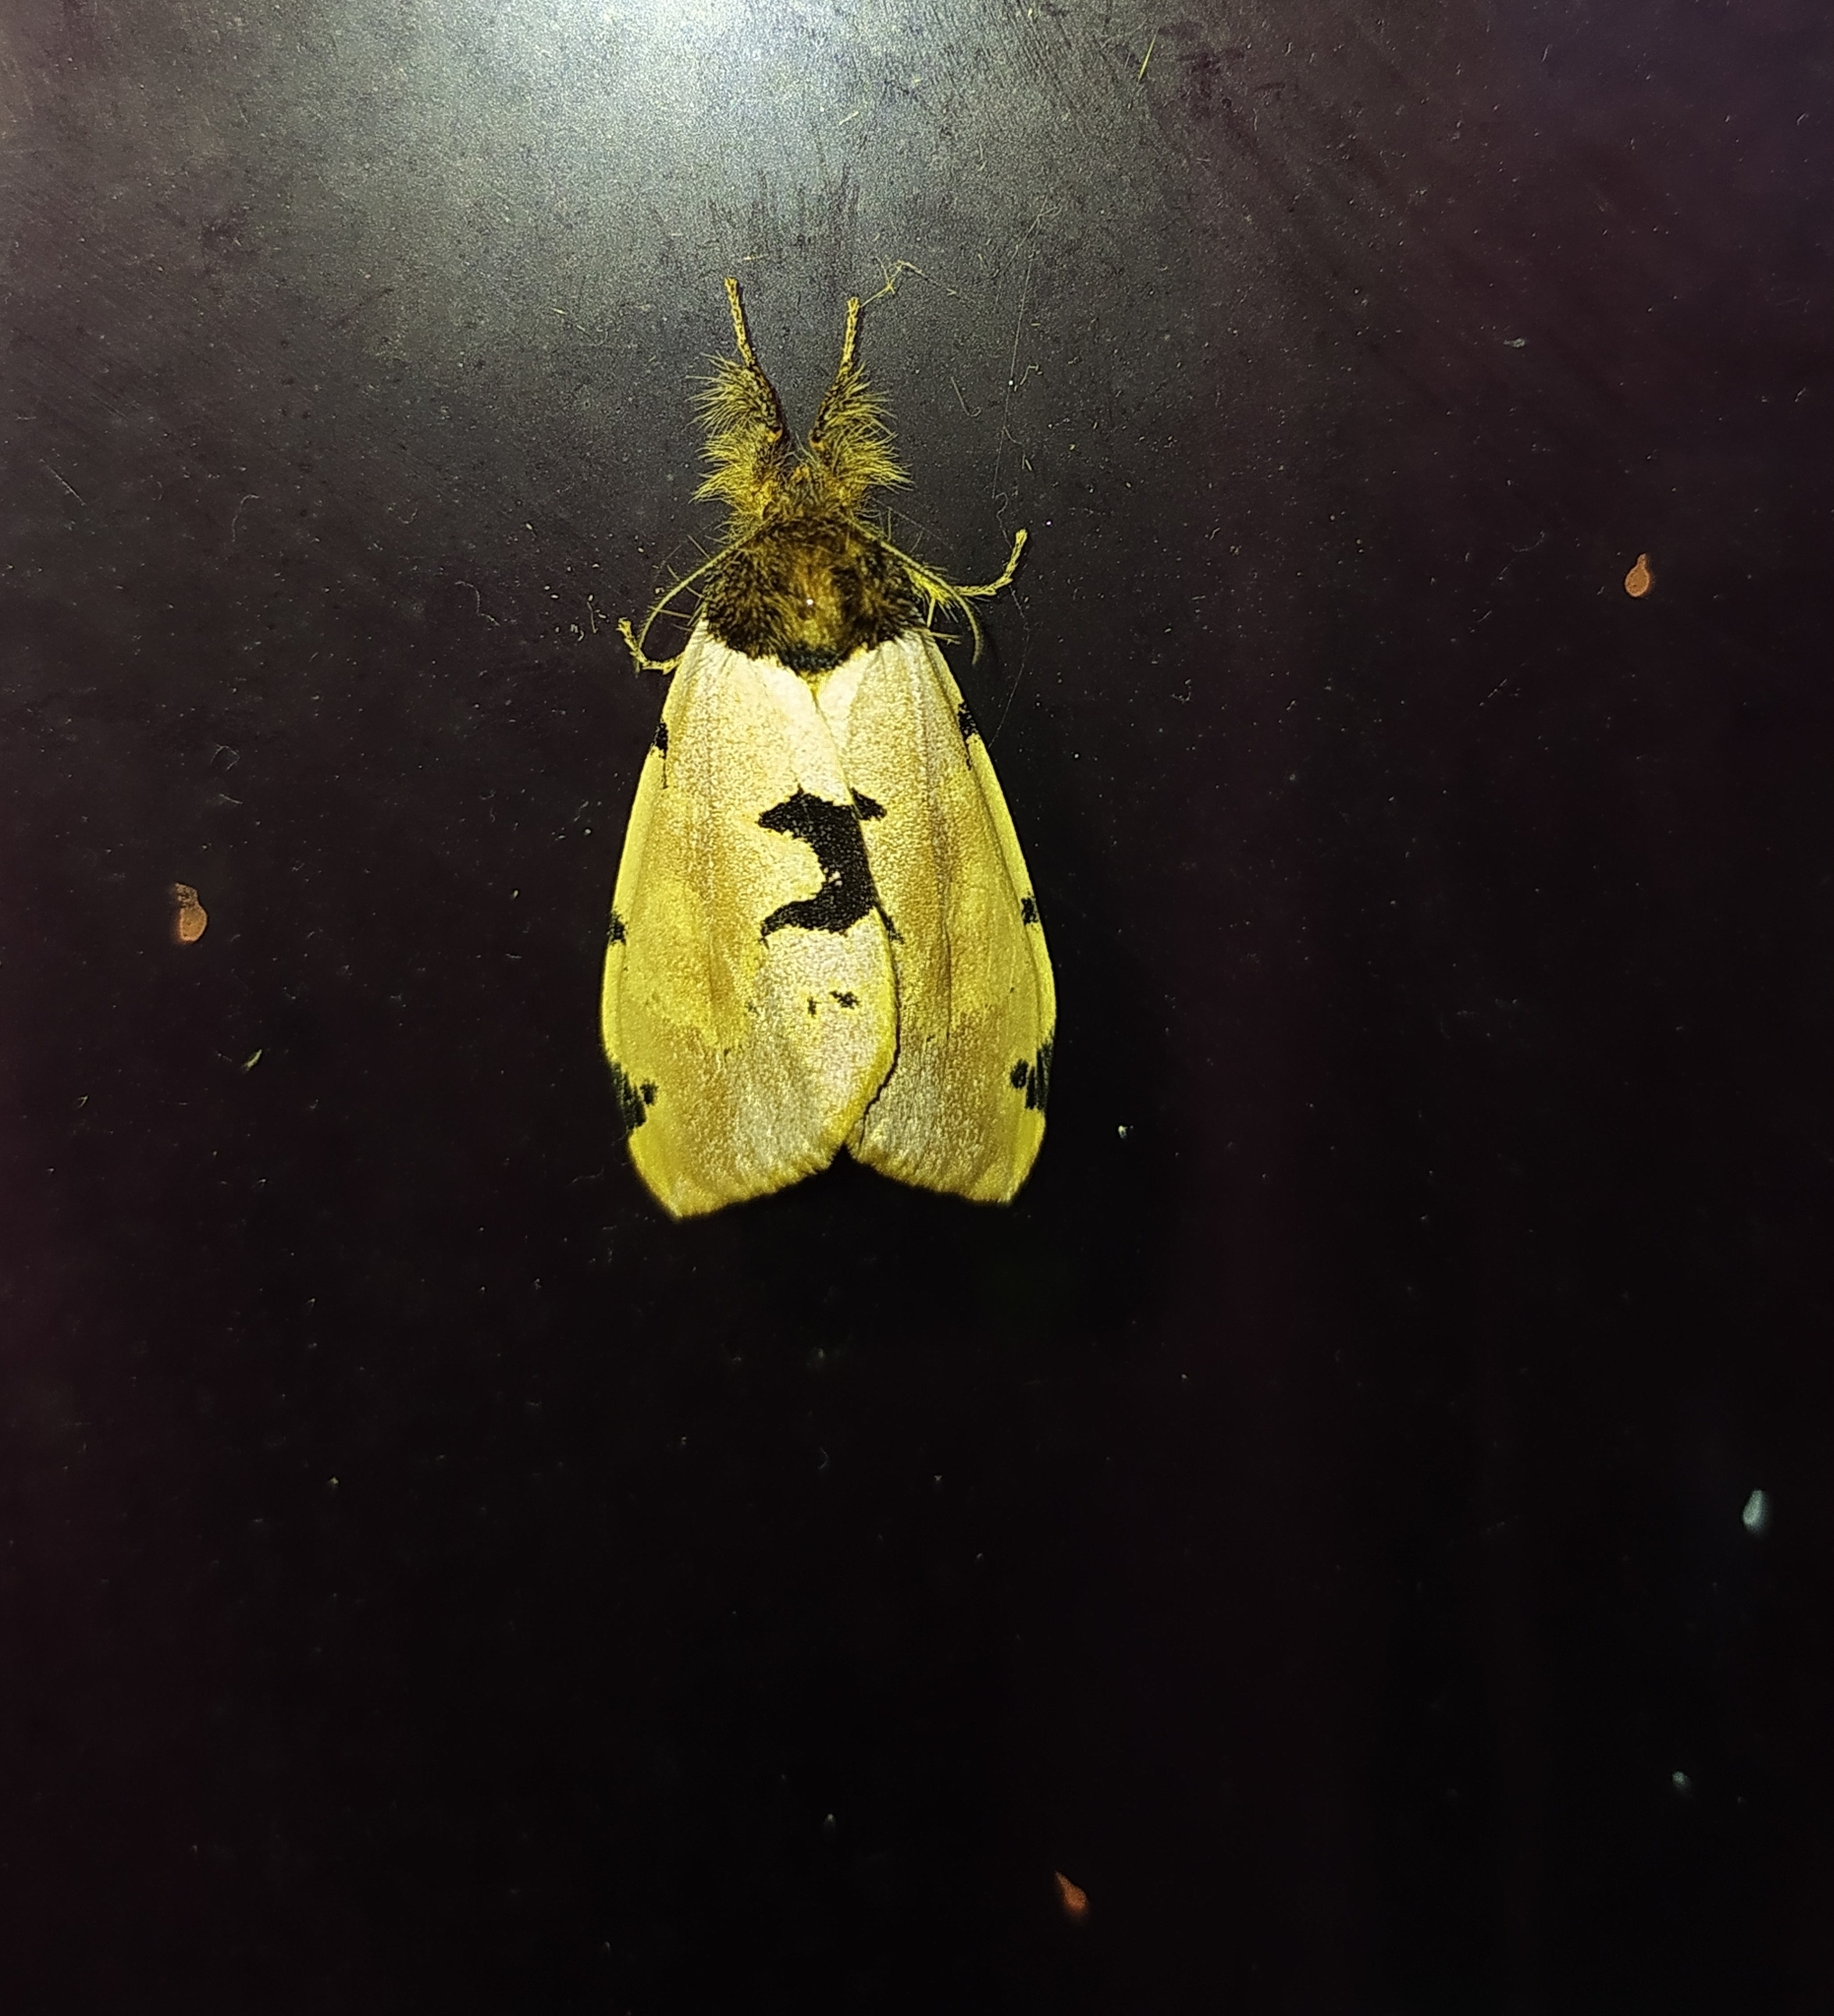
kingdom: Animalia
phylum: Arthropoda
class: Insecta
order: Lepidoptera
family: Erebidae
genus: Pida
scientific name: Pida
